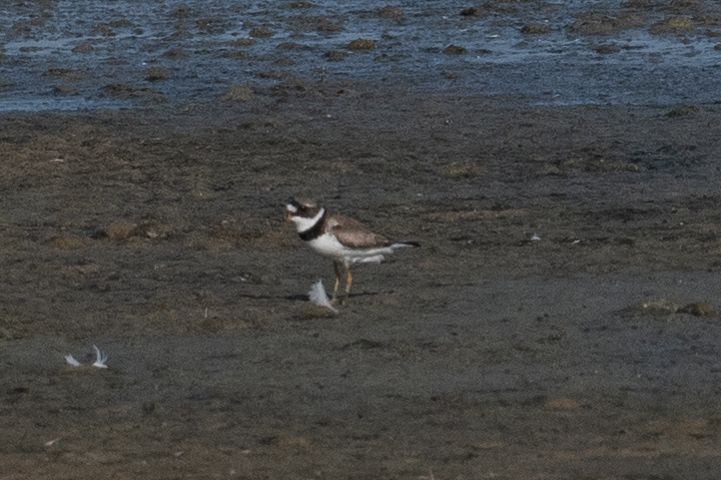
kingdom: Animalia
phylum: Chordata
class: Aves
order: Charadriiformes
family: Charadriidae
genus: Charadrius
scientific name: Charadrius semipalmatus
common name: Semipalmated plover
